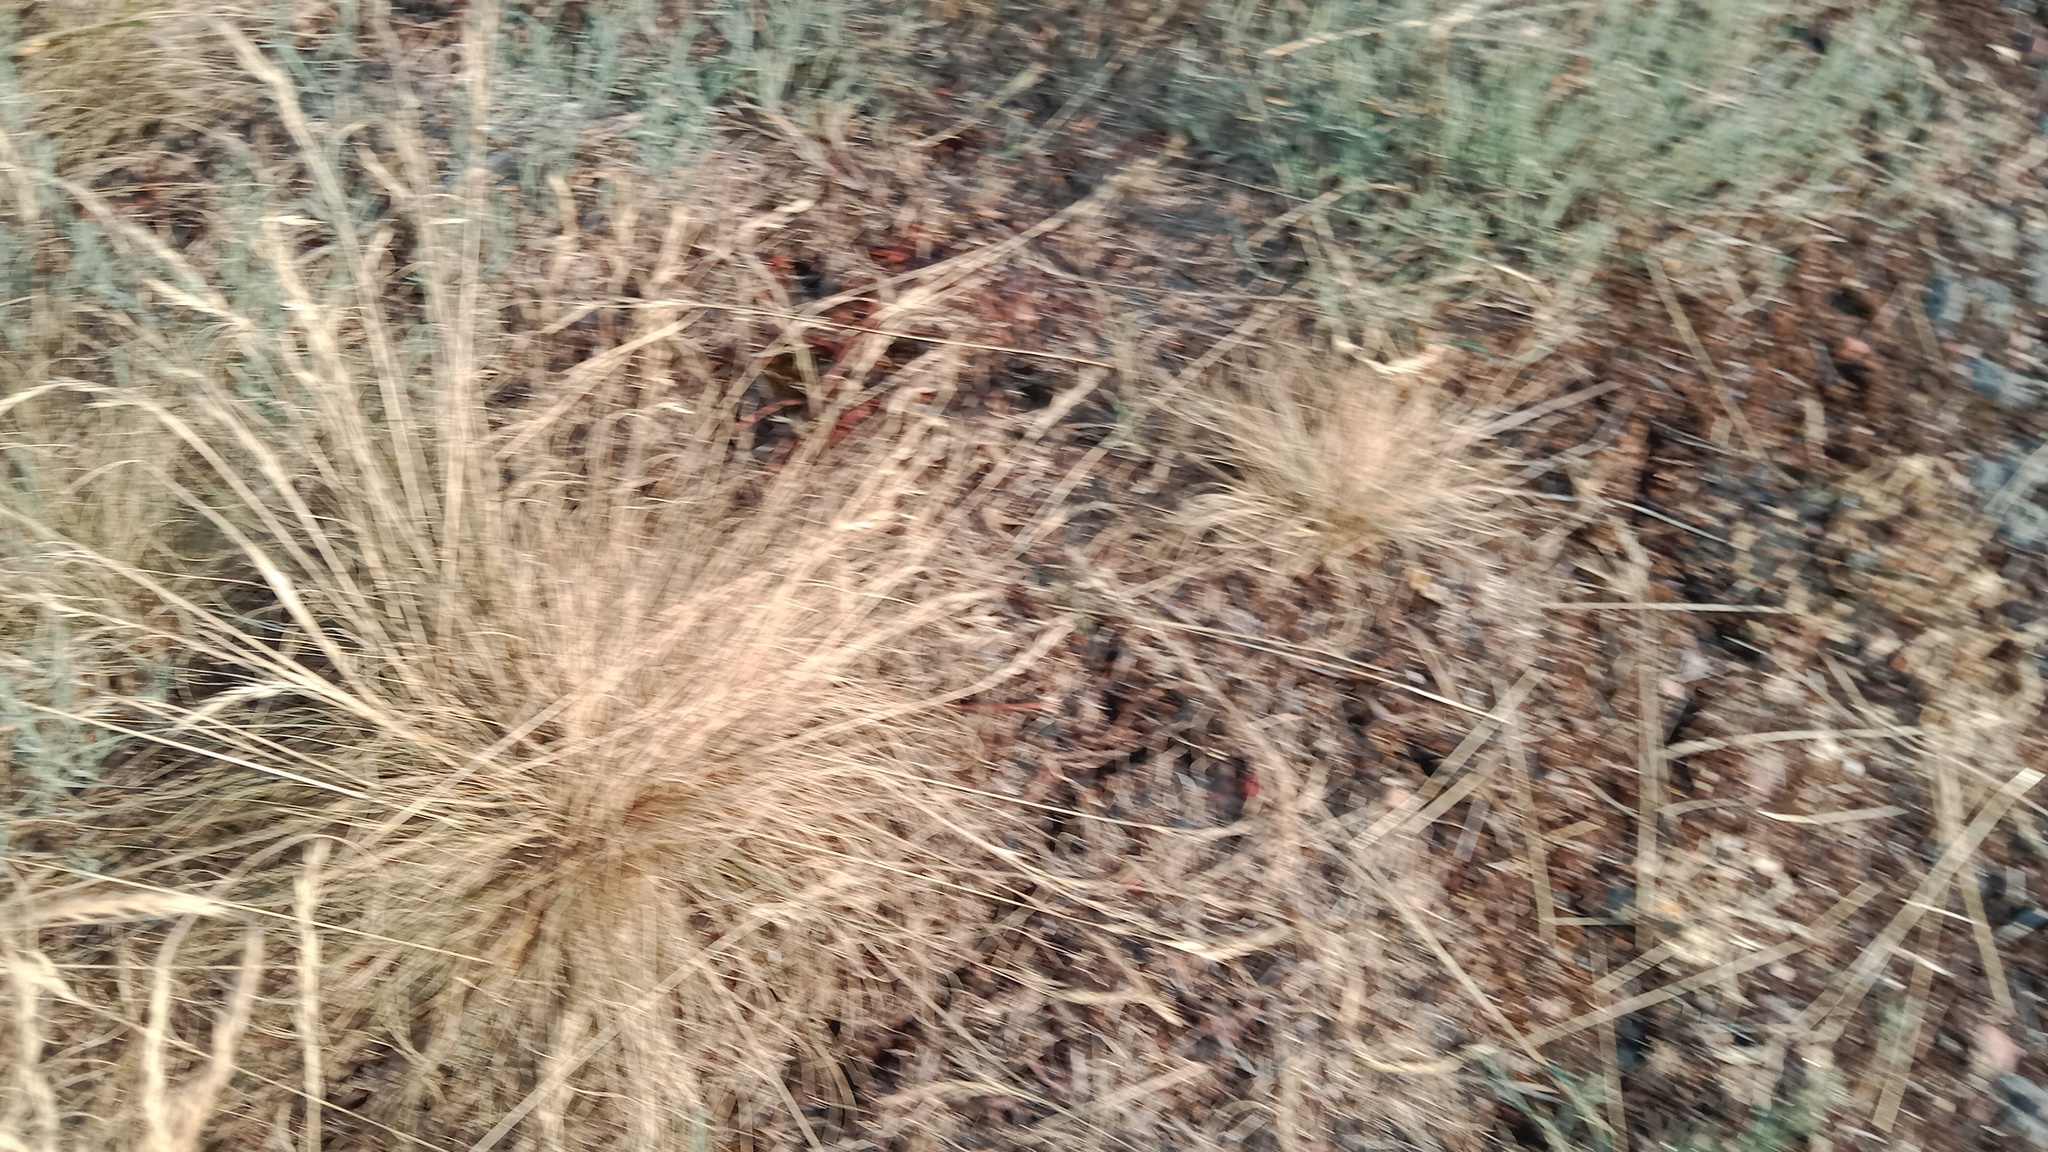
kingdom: Plantae
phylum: Tracheophyta
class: Liliopsida
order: Poales
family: Poaceae
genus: Festuca
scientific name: Festuca rupicola
